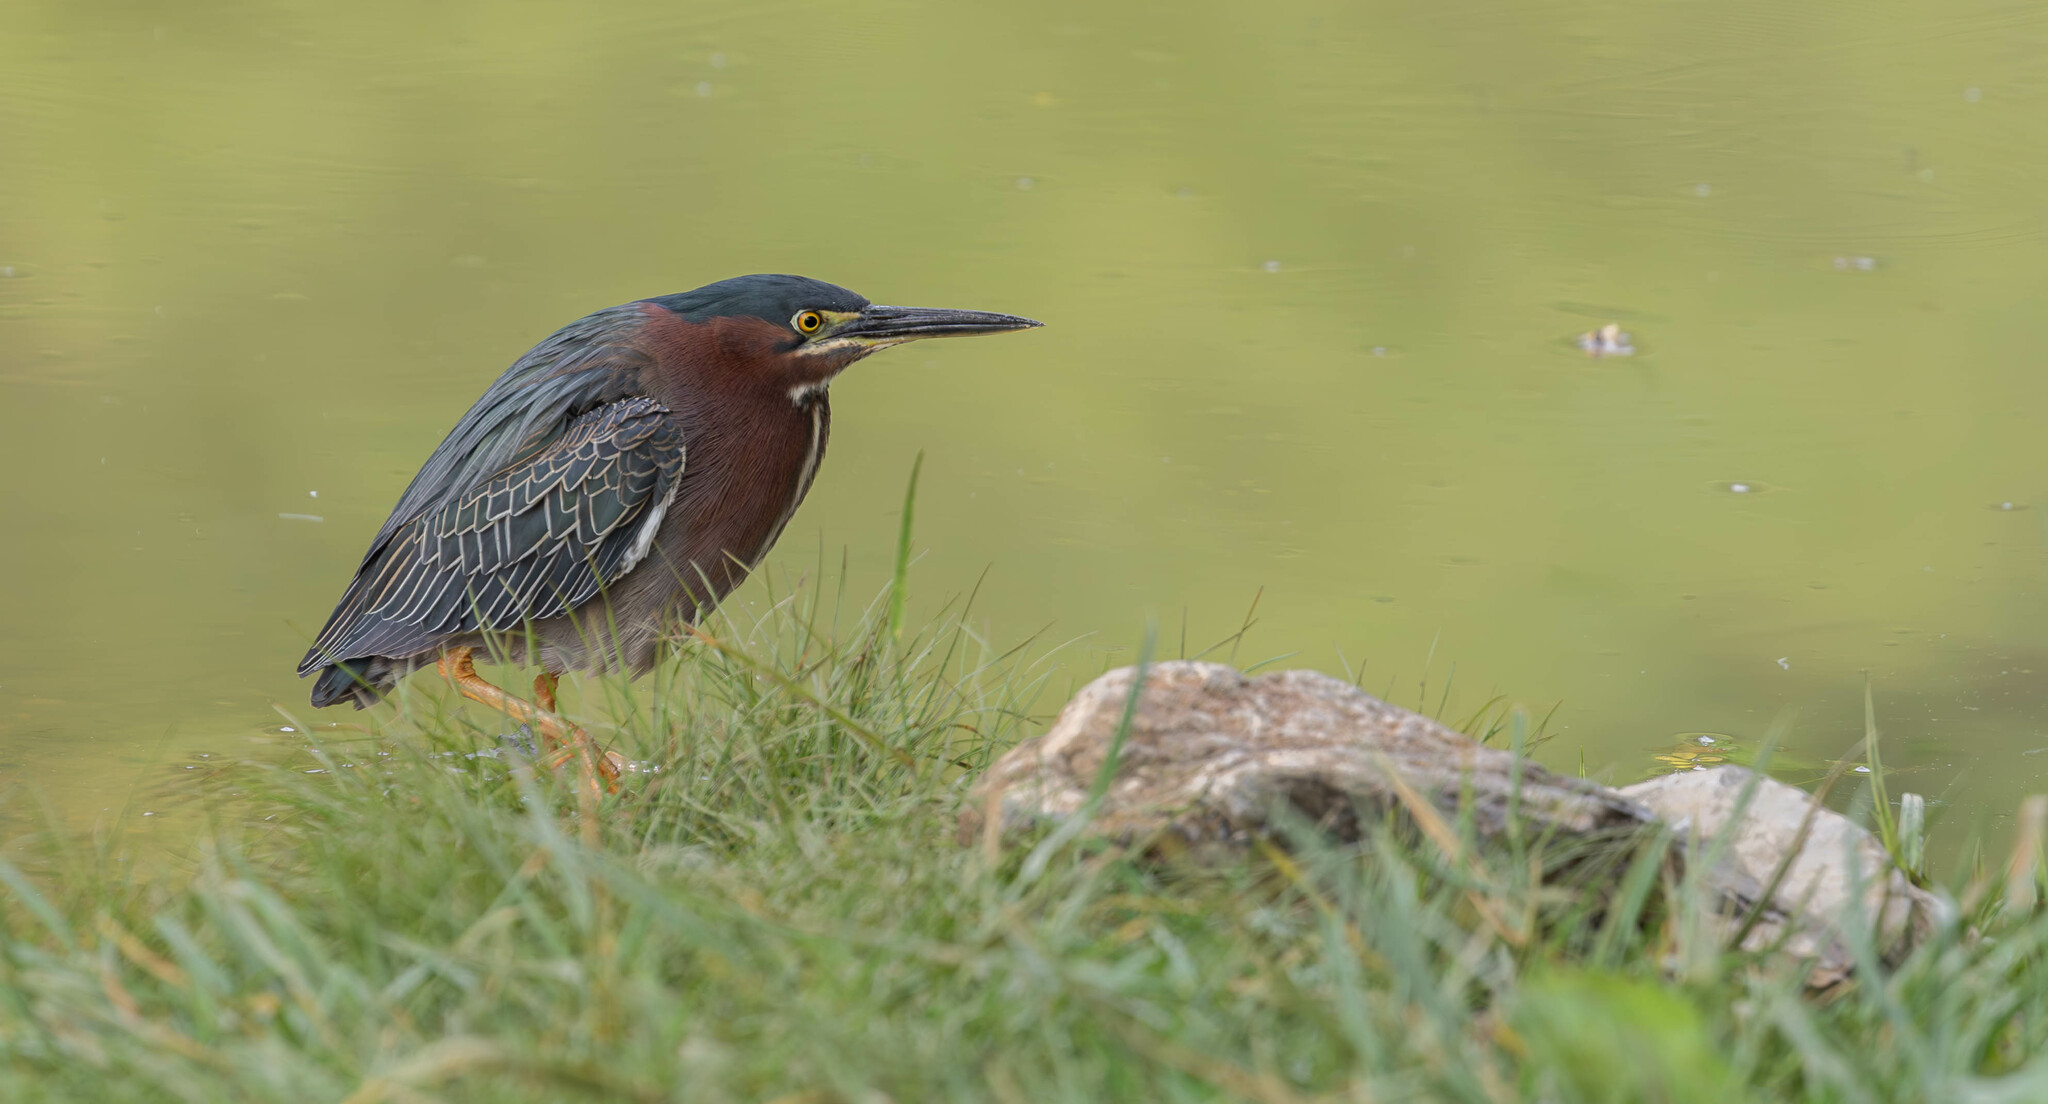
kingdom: Animalia
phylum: Chordata
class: Aves
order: Pelecaniformes
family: Ardeidae
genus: Butorides
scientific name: Butorides virescens
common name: Green heron
